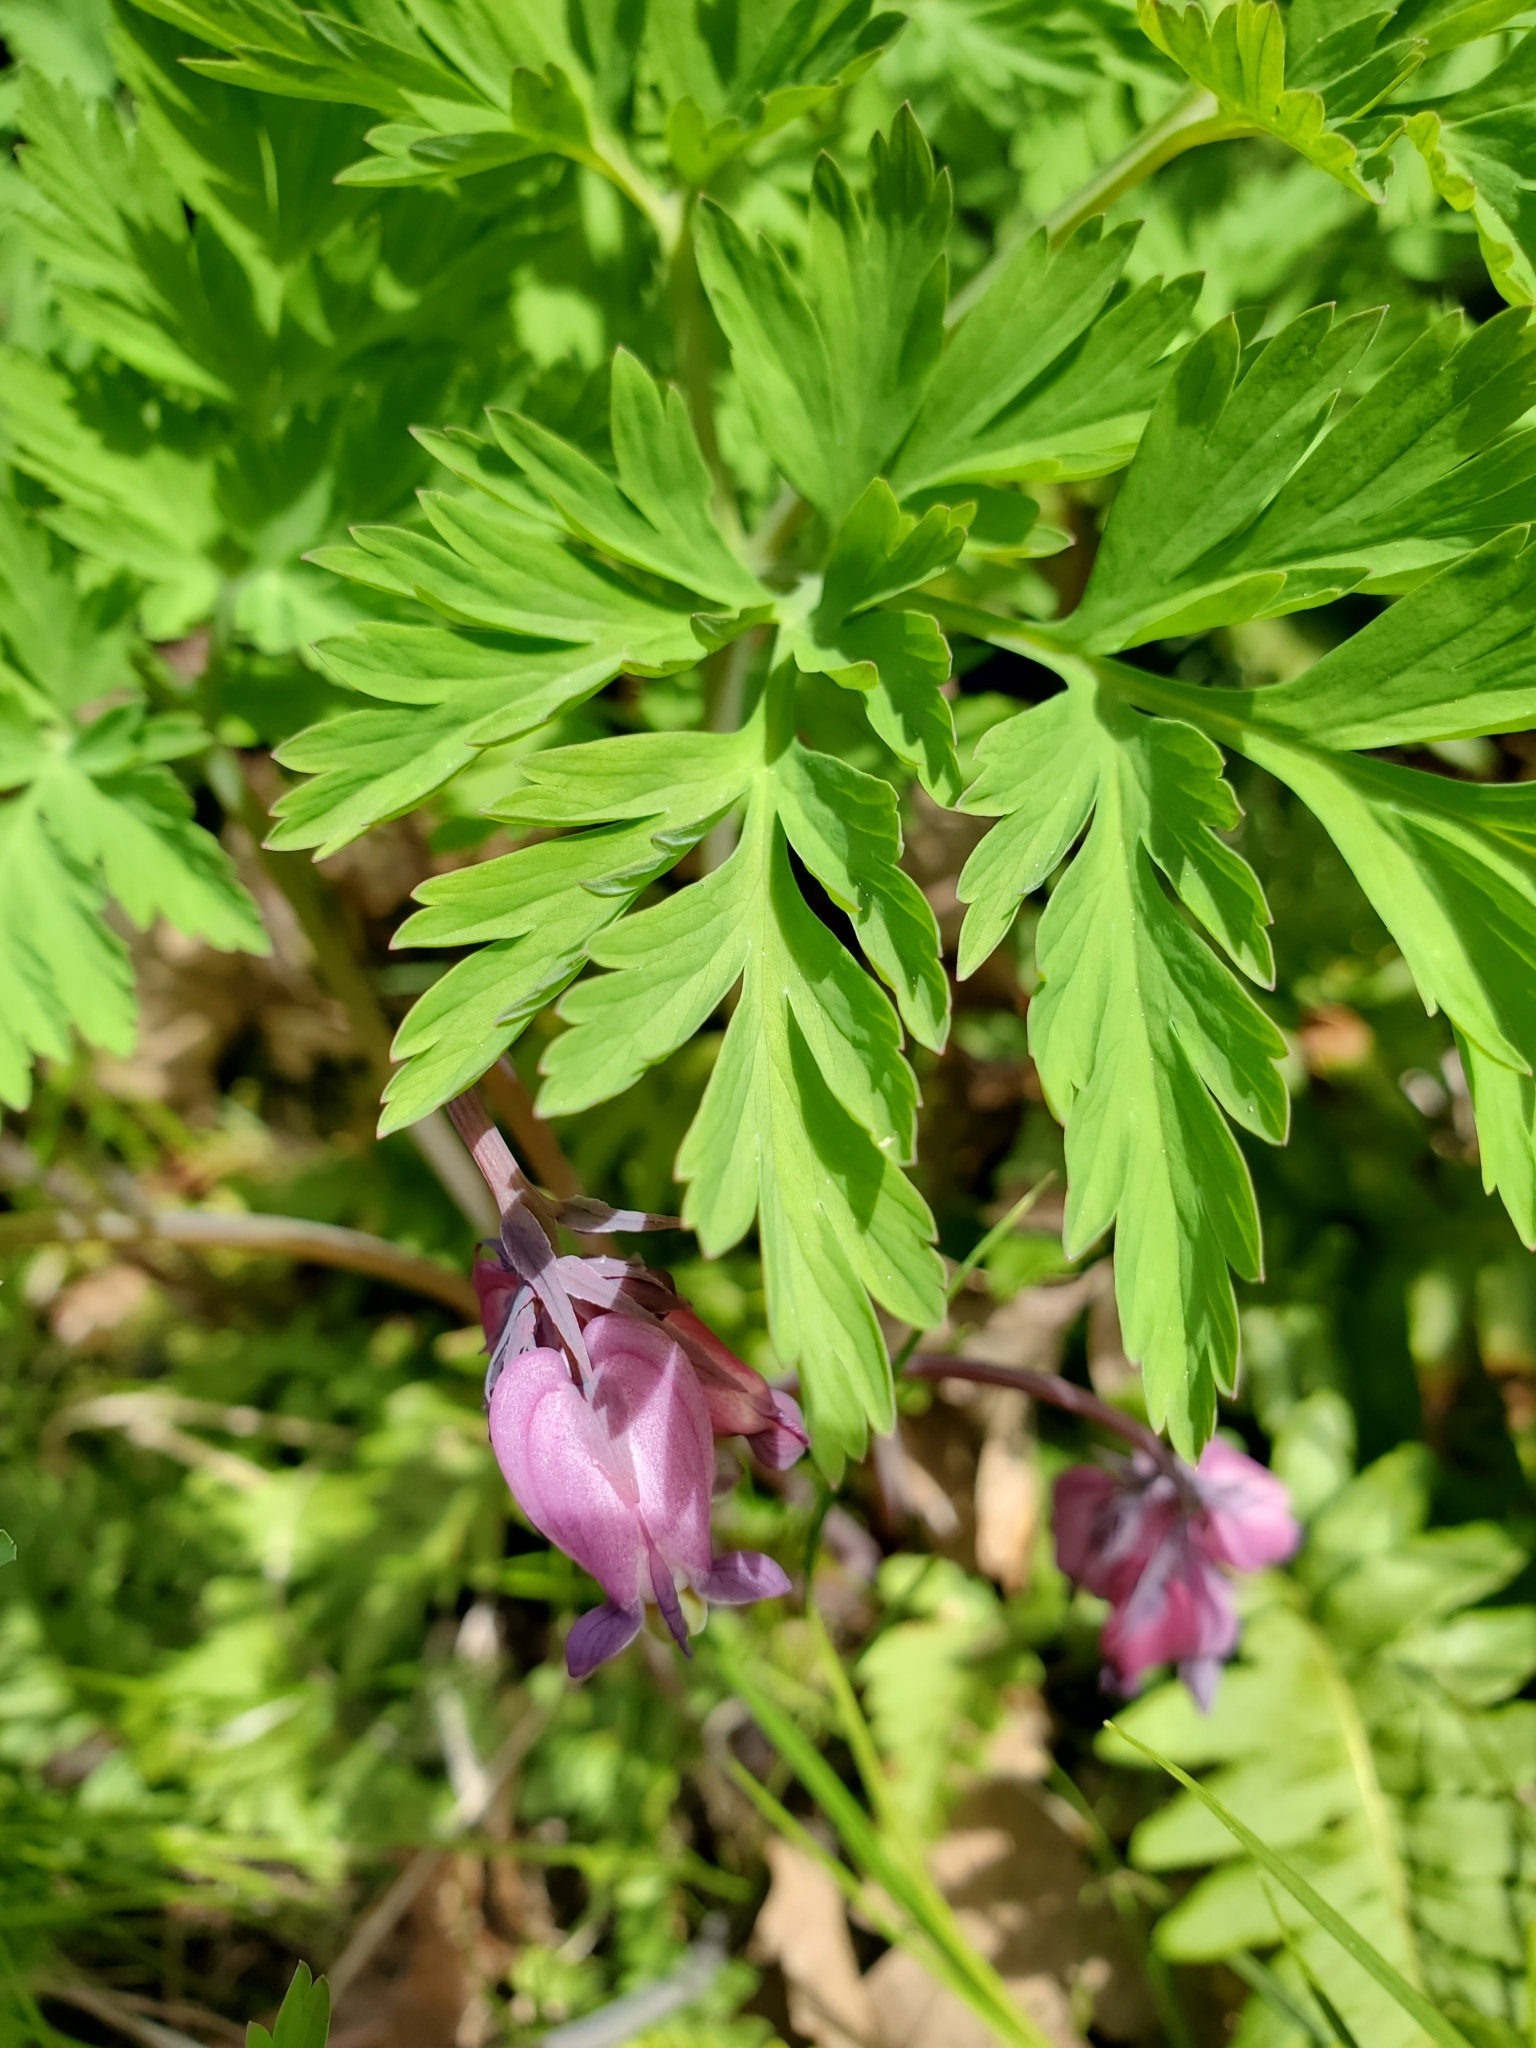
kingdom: Plantae
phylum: Tracheophyta
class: Magnoliopsida
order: Ranunculales
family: Papaveraceae
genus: Dicentra
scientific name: Dicentra formosa
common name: Bleeding-heart
